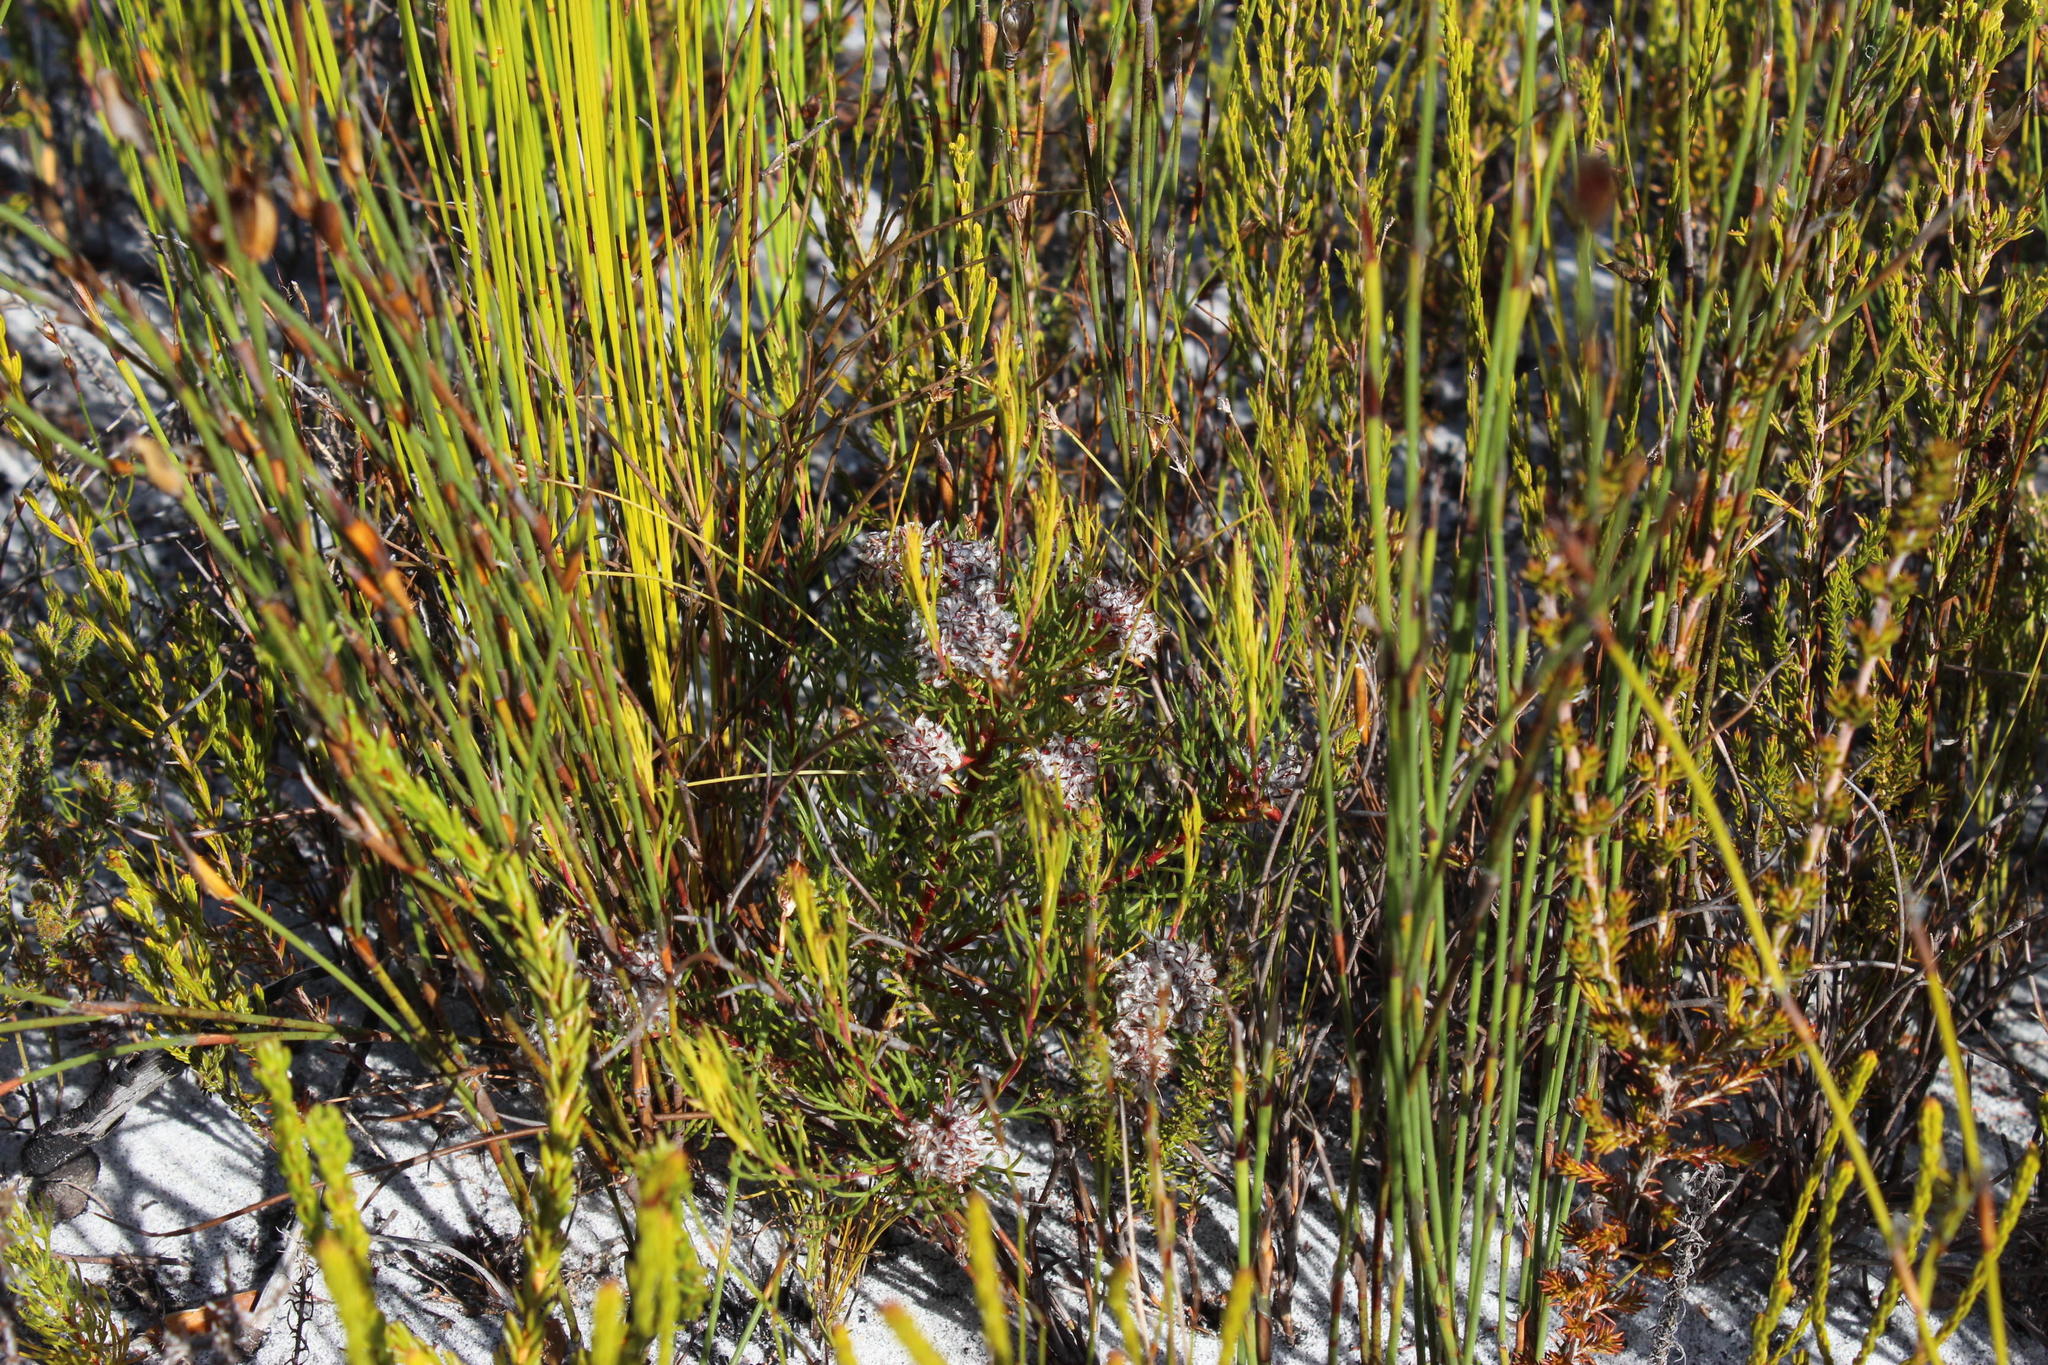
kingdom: Plantae
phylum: Tracheophyta
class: Magnoliopsida
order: Proteales
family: Proteaceae
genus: Serruria
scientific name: Serruria nervosa
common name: Fluted spiderhead
